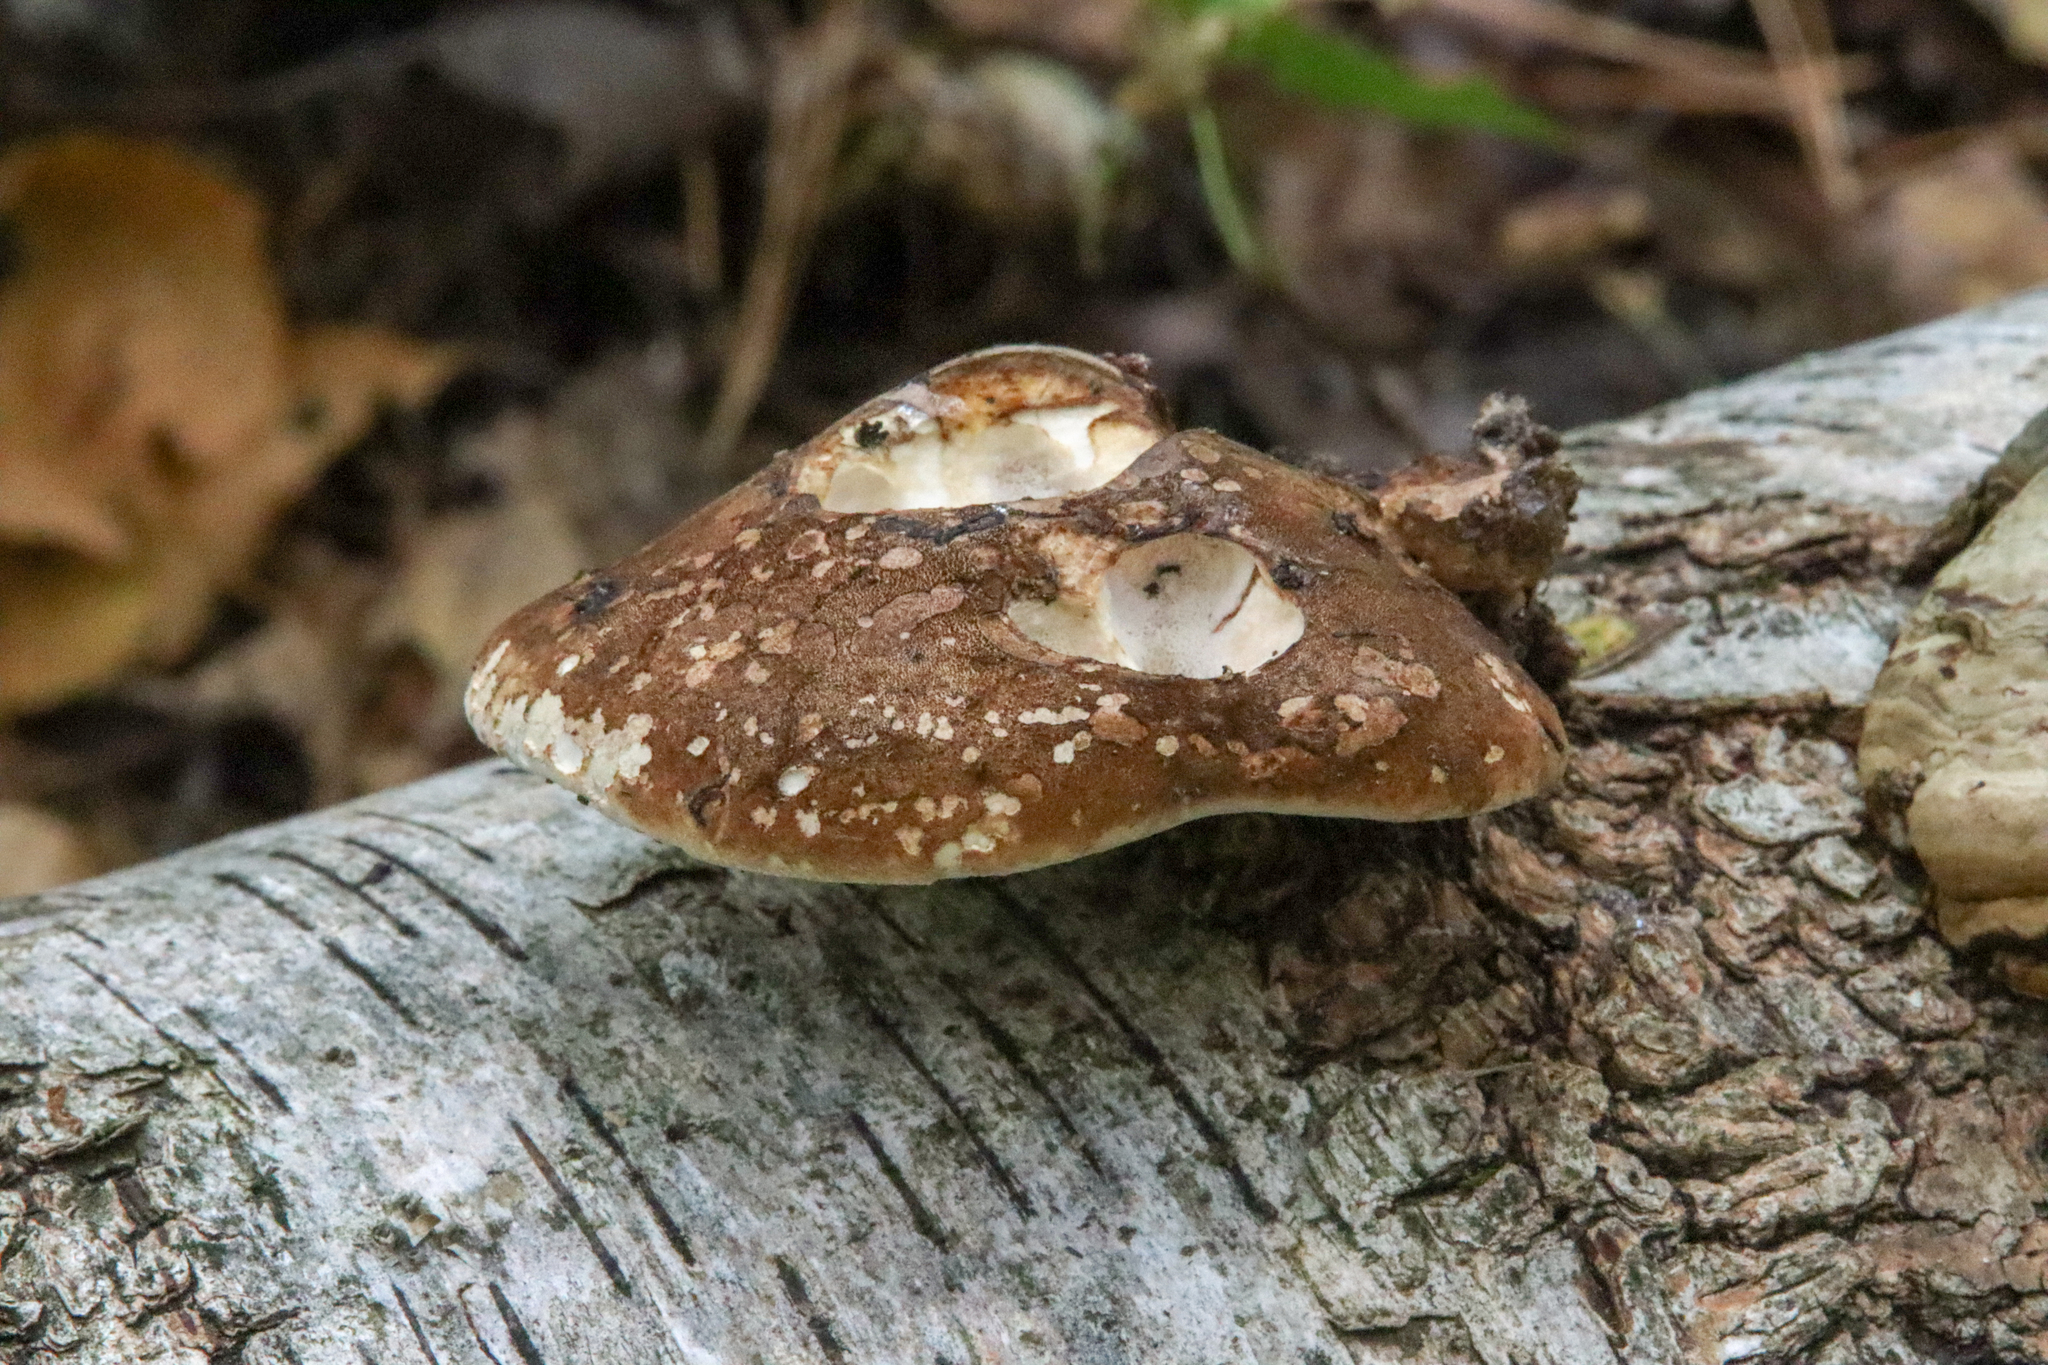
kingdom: Fungi
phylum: Basidiomycota
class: Agaricomycetes
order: Polyporales
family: Fomitopsidaceae
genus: Fomitopsis
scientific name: Fomitopsis betulina
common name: Birch polypore
